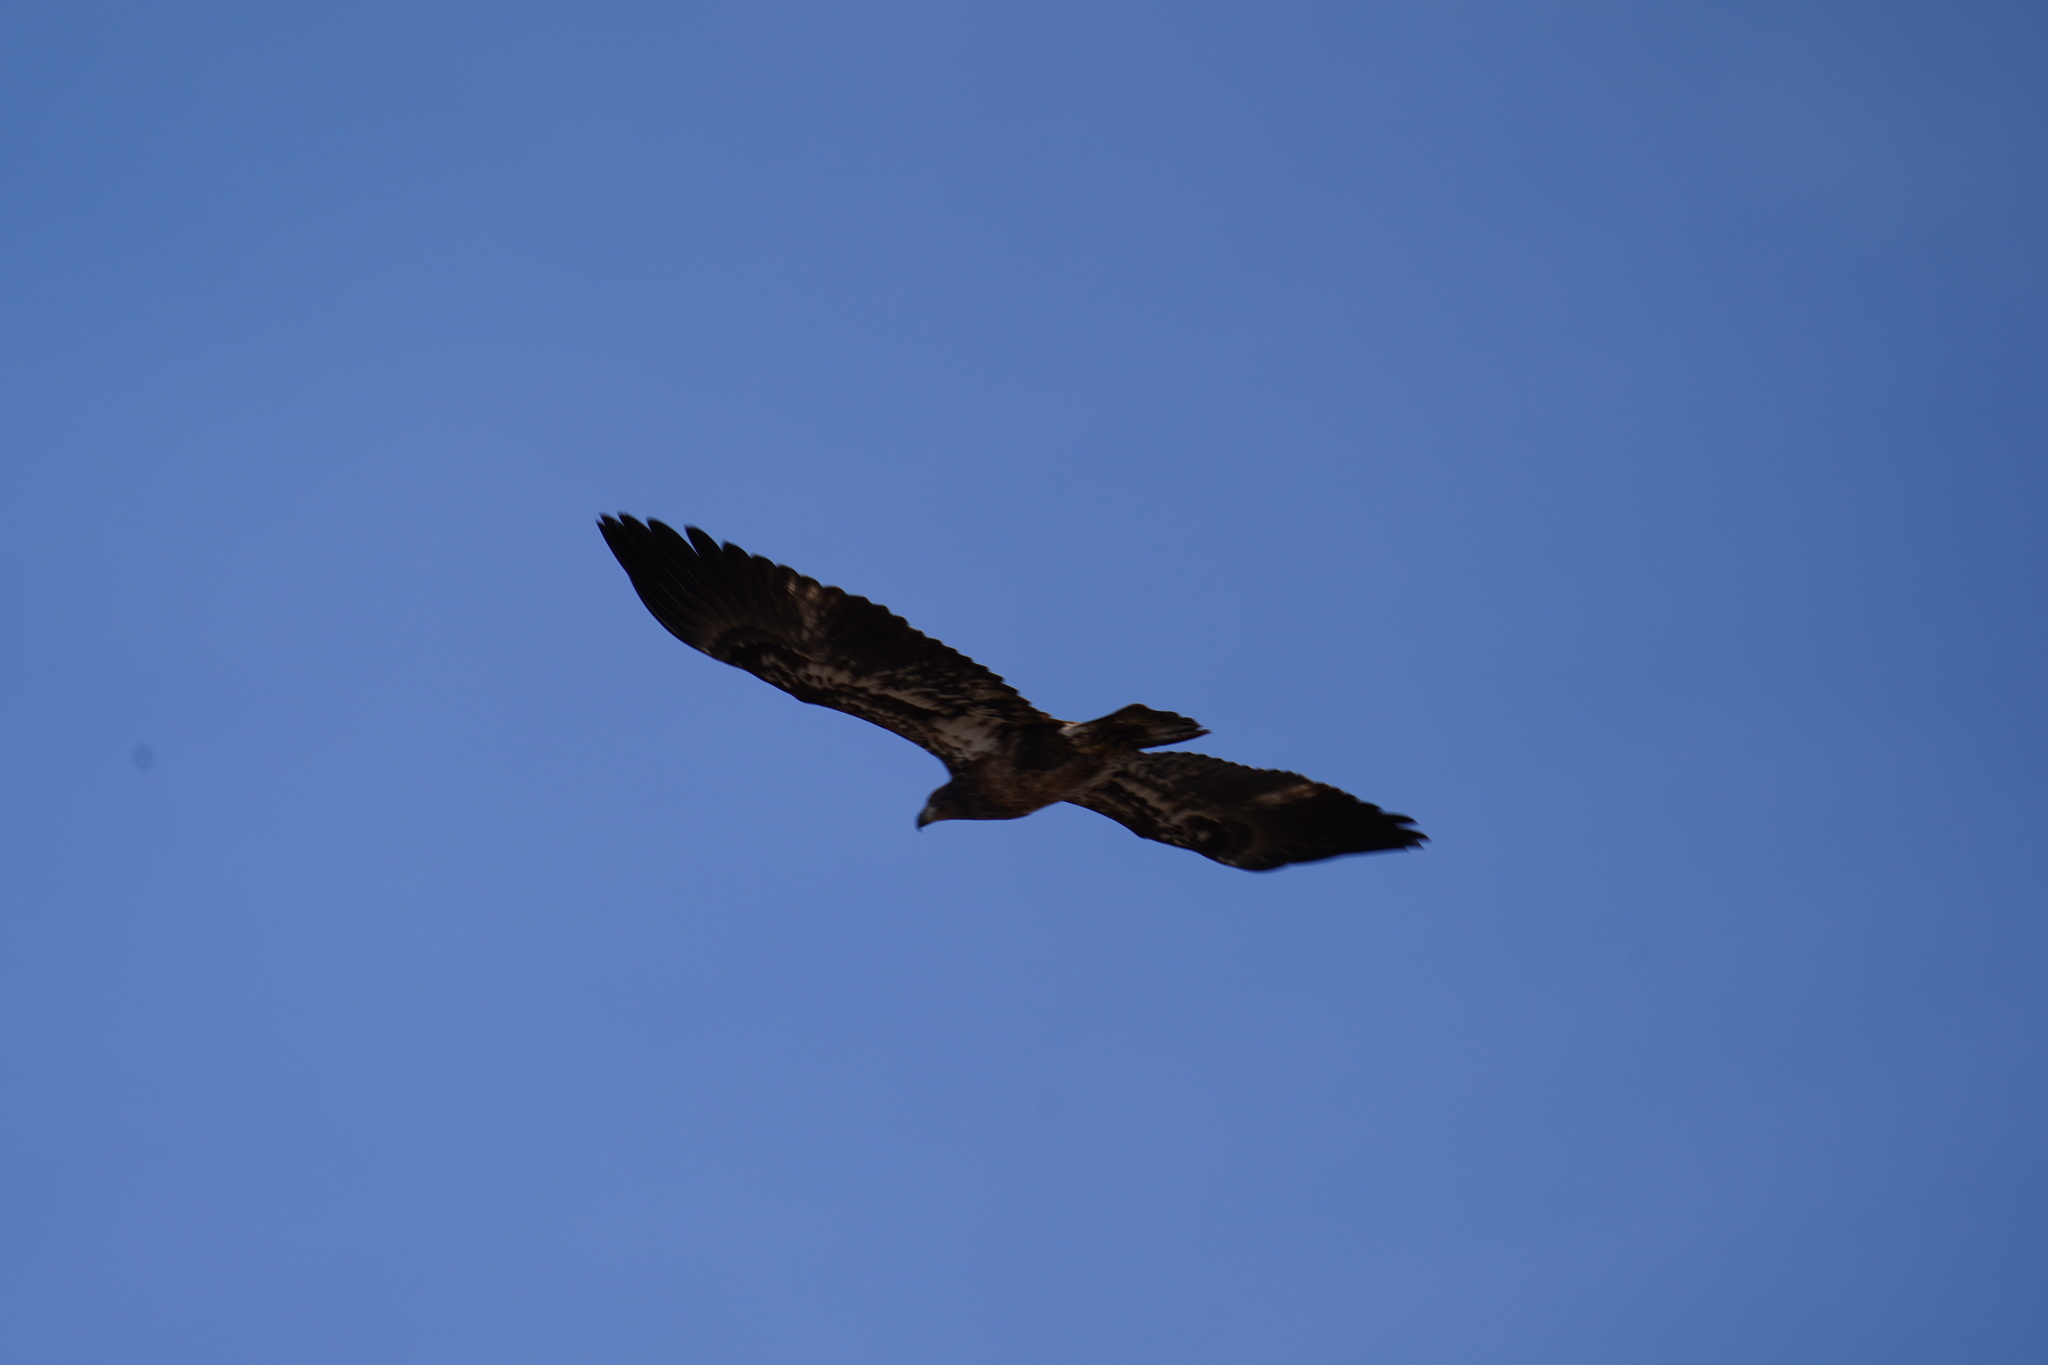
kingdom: Animalia
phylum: Chordata
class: Aves
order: Accipitriformes
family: Accipitridae
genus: Haliaeetus
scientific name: Haliaeetus leucocephalus
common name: Bald eagle
